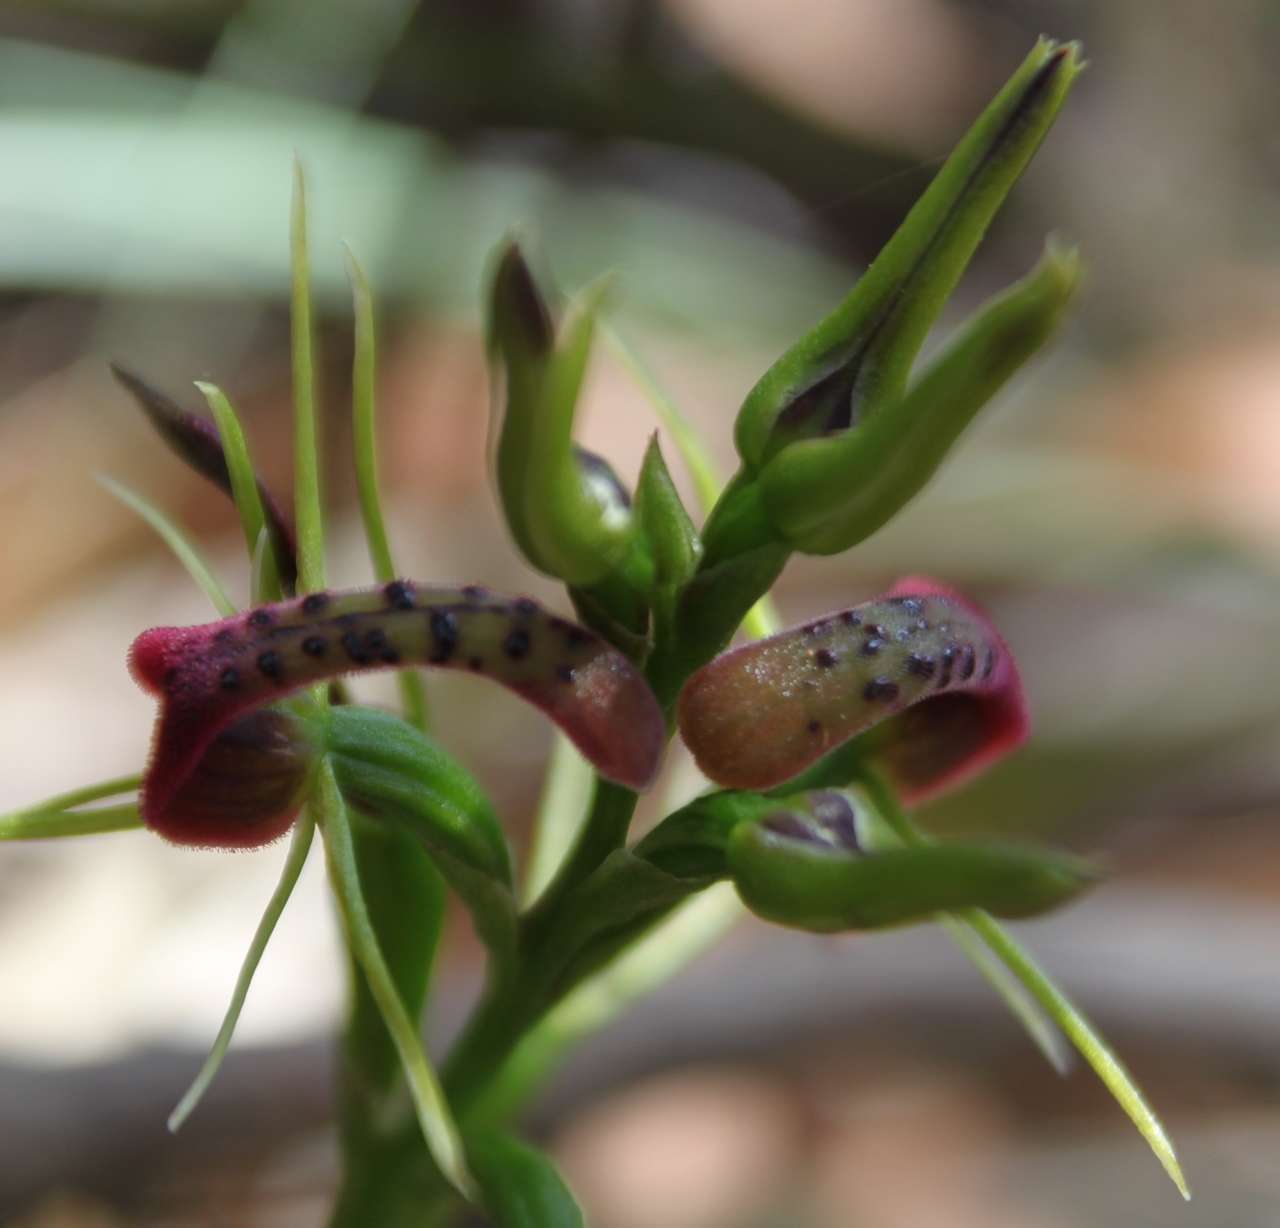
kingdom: Plantae
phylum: Tracheophyta
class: Liliopsida
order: Asparagales
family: Orchidaceae
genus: Cryptostylis
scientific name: Cryptostylis leptochila
